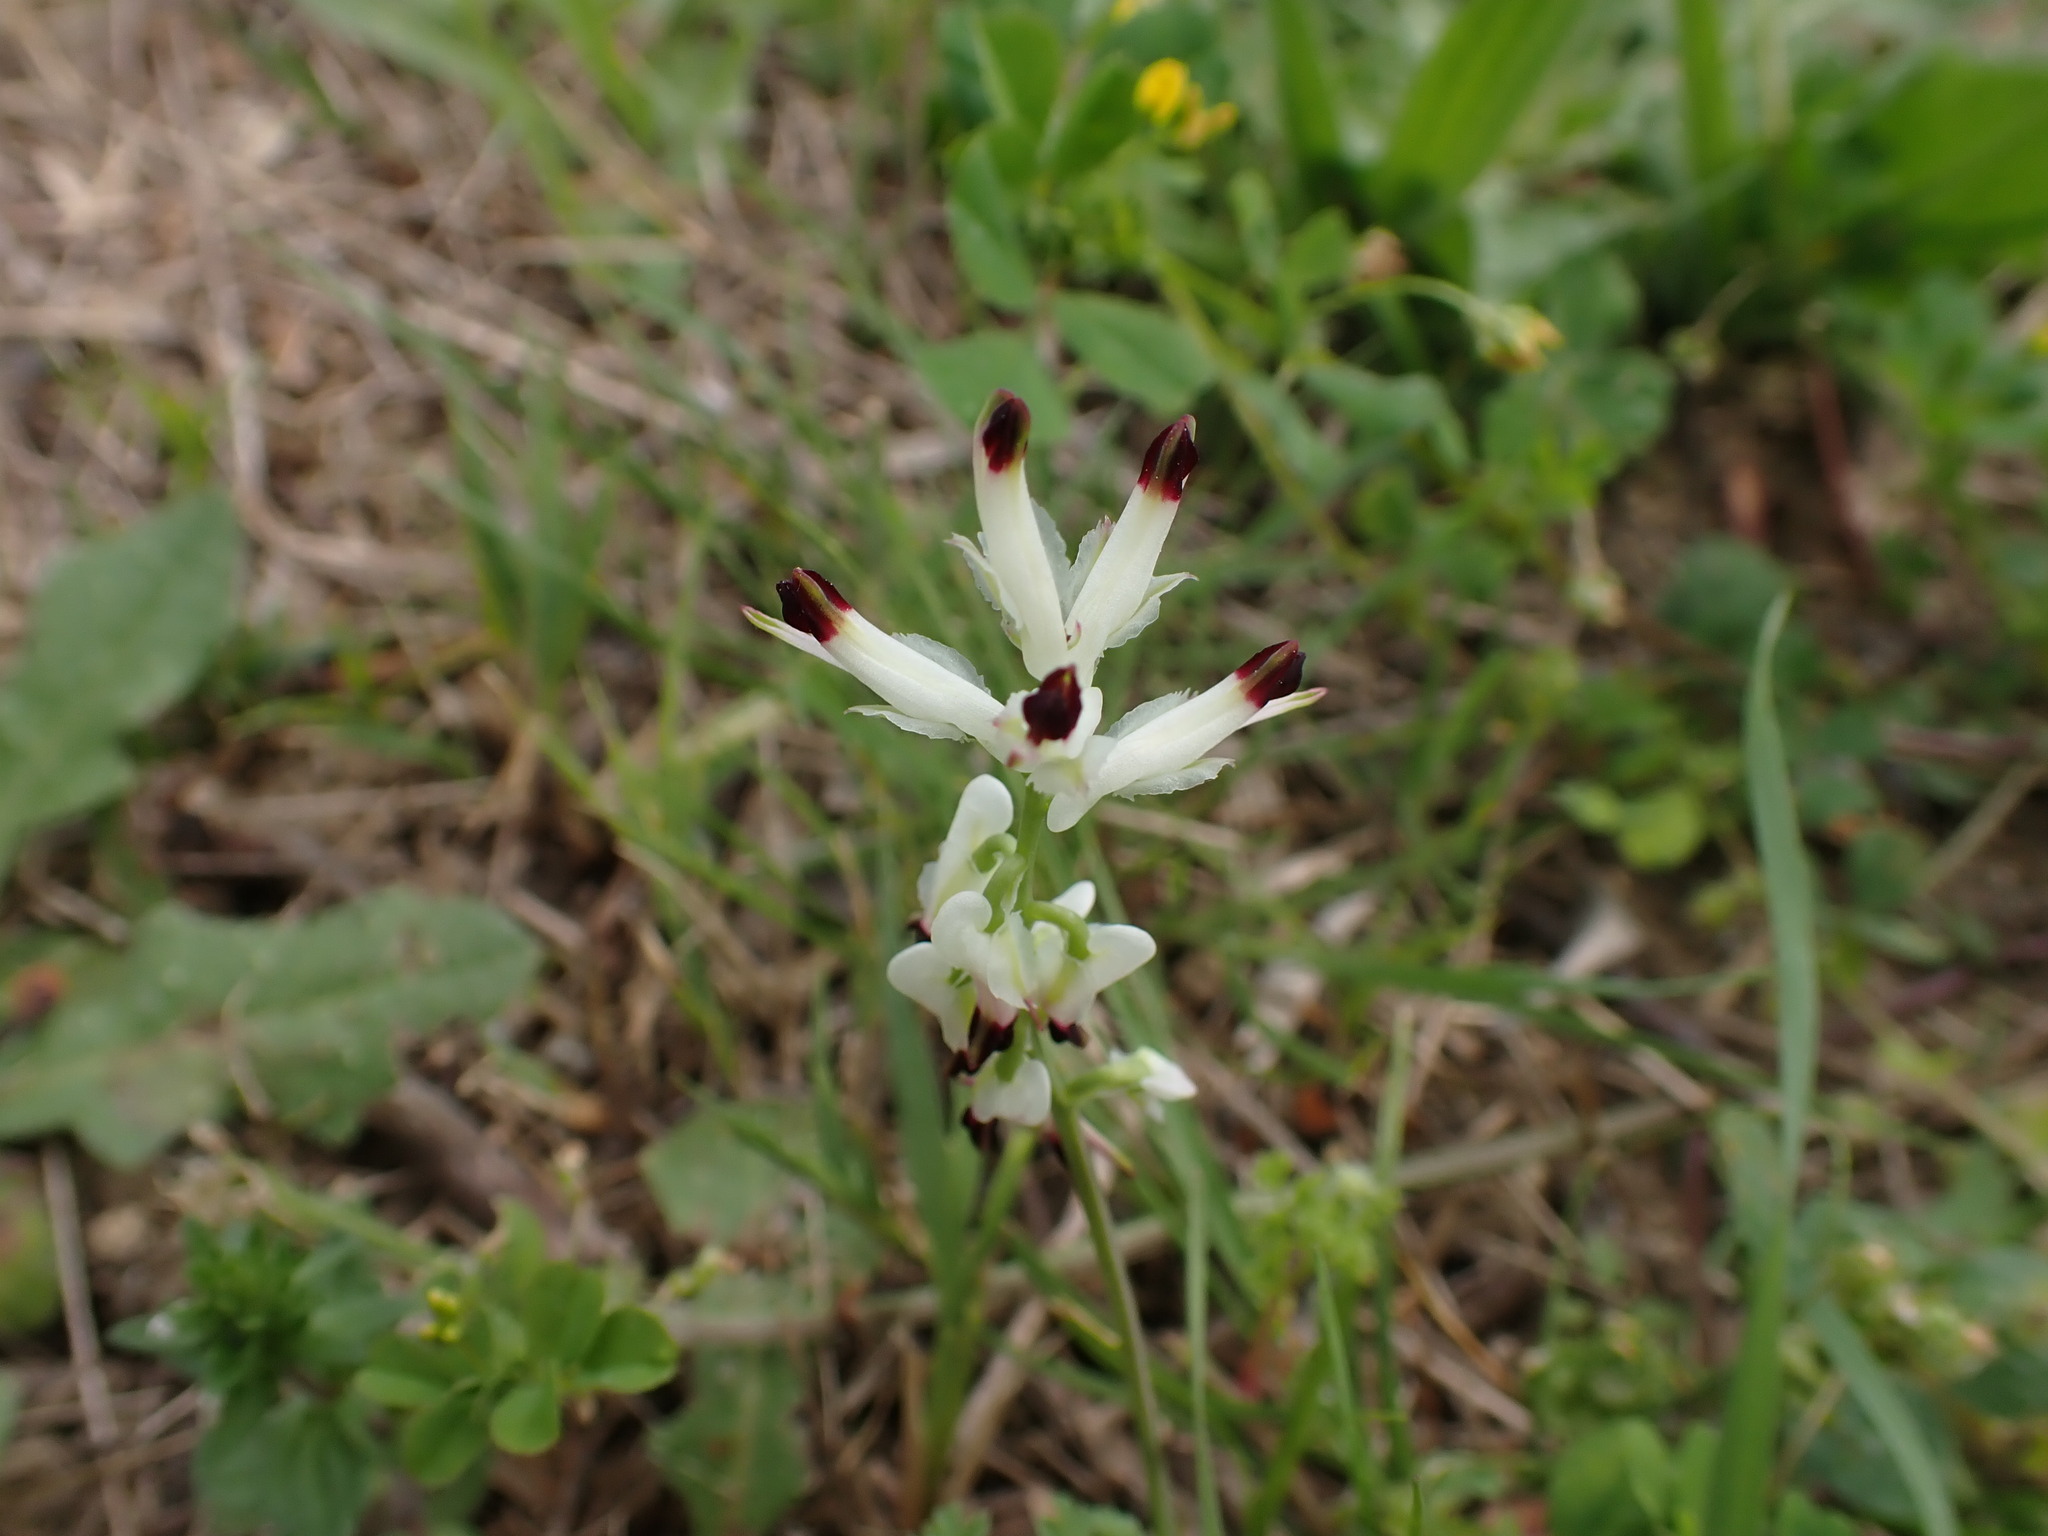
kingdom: Plantae
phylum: Tracheophyta
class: Magnoliopsida
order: Ranunculales
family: Papaveraceae
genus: Fumaria
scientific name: Fumaria capreolata
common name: White ramping-fumitory
